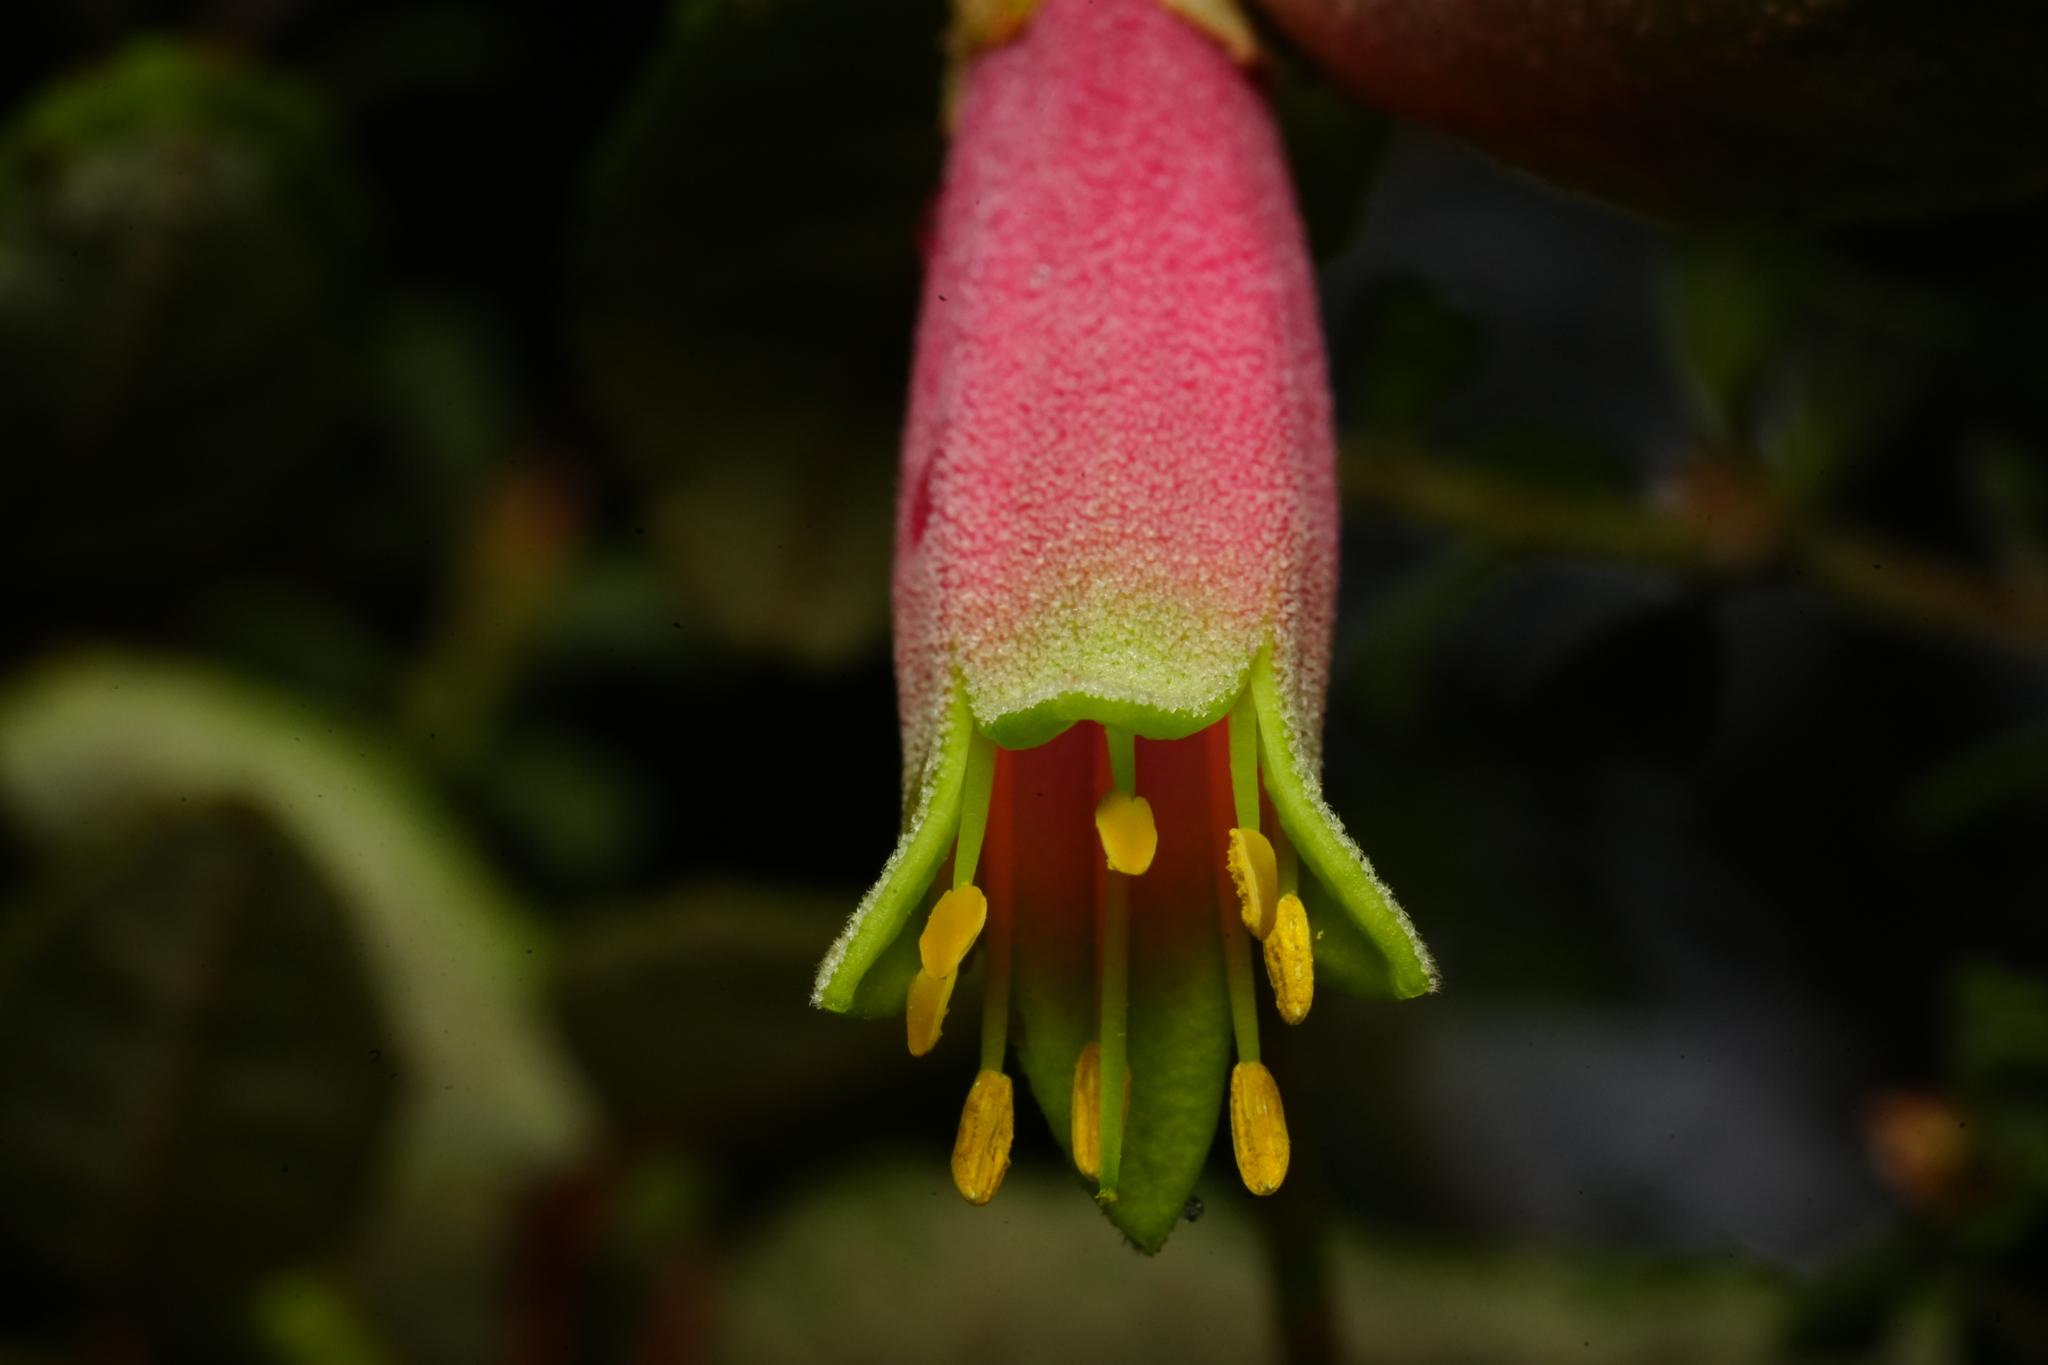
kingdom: Plantae
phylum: Tracheophyta
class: Magnoliopsida
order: Sapindales
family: Rutaceae
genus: Correa
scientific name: Correa reflexa
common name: Common correa
